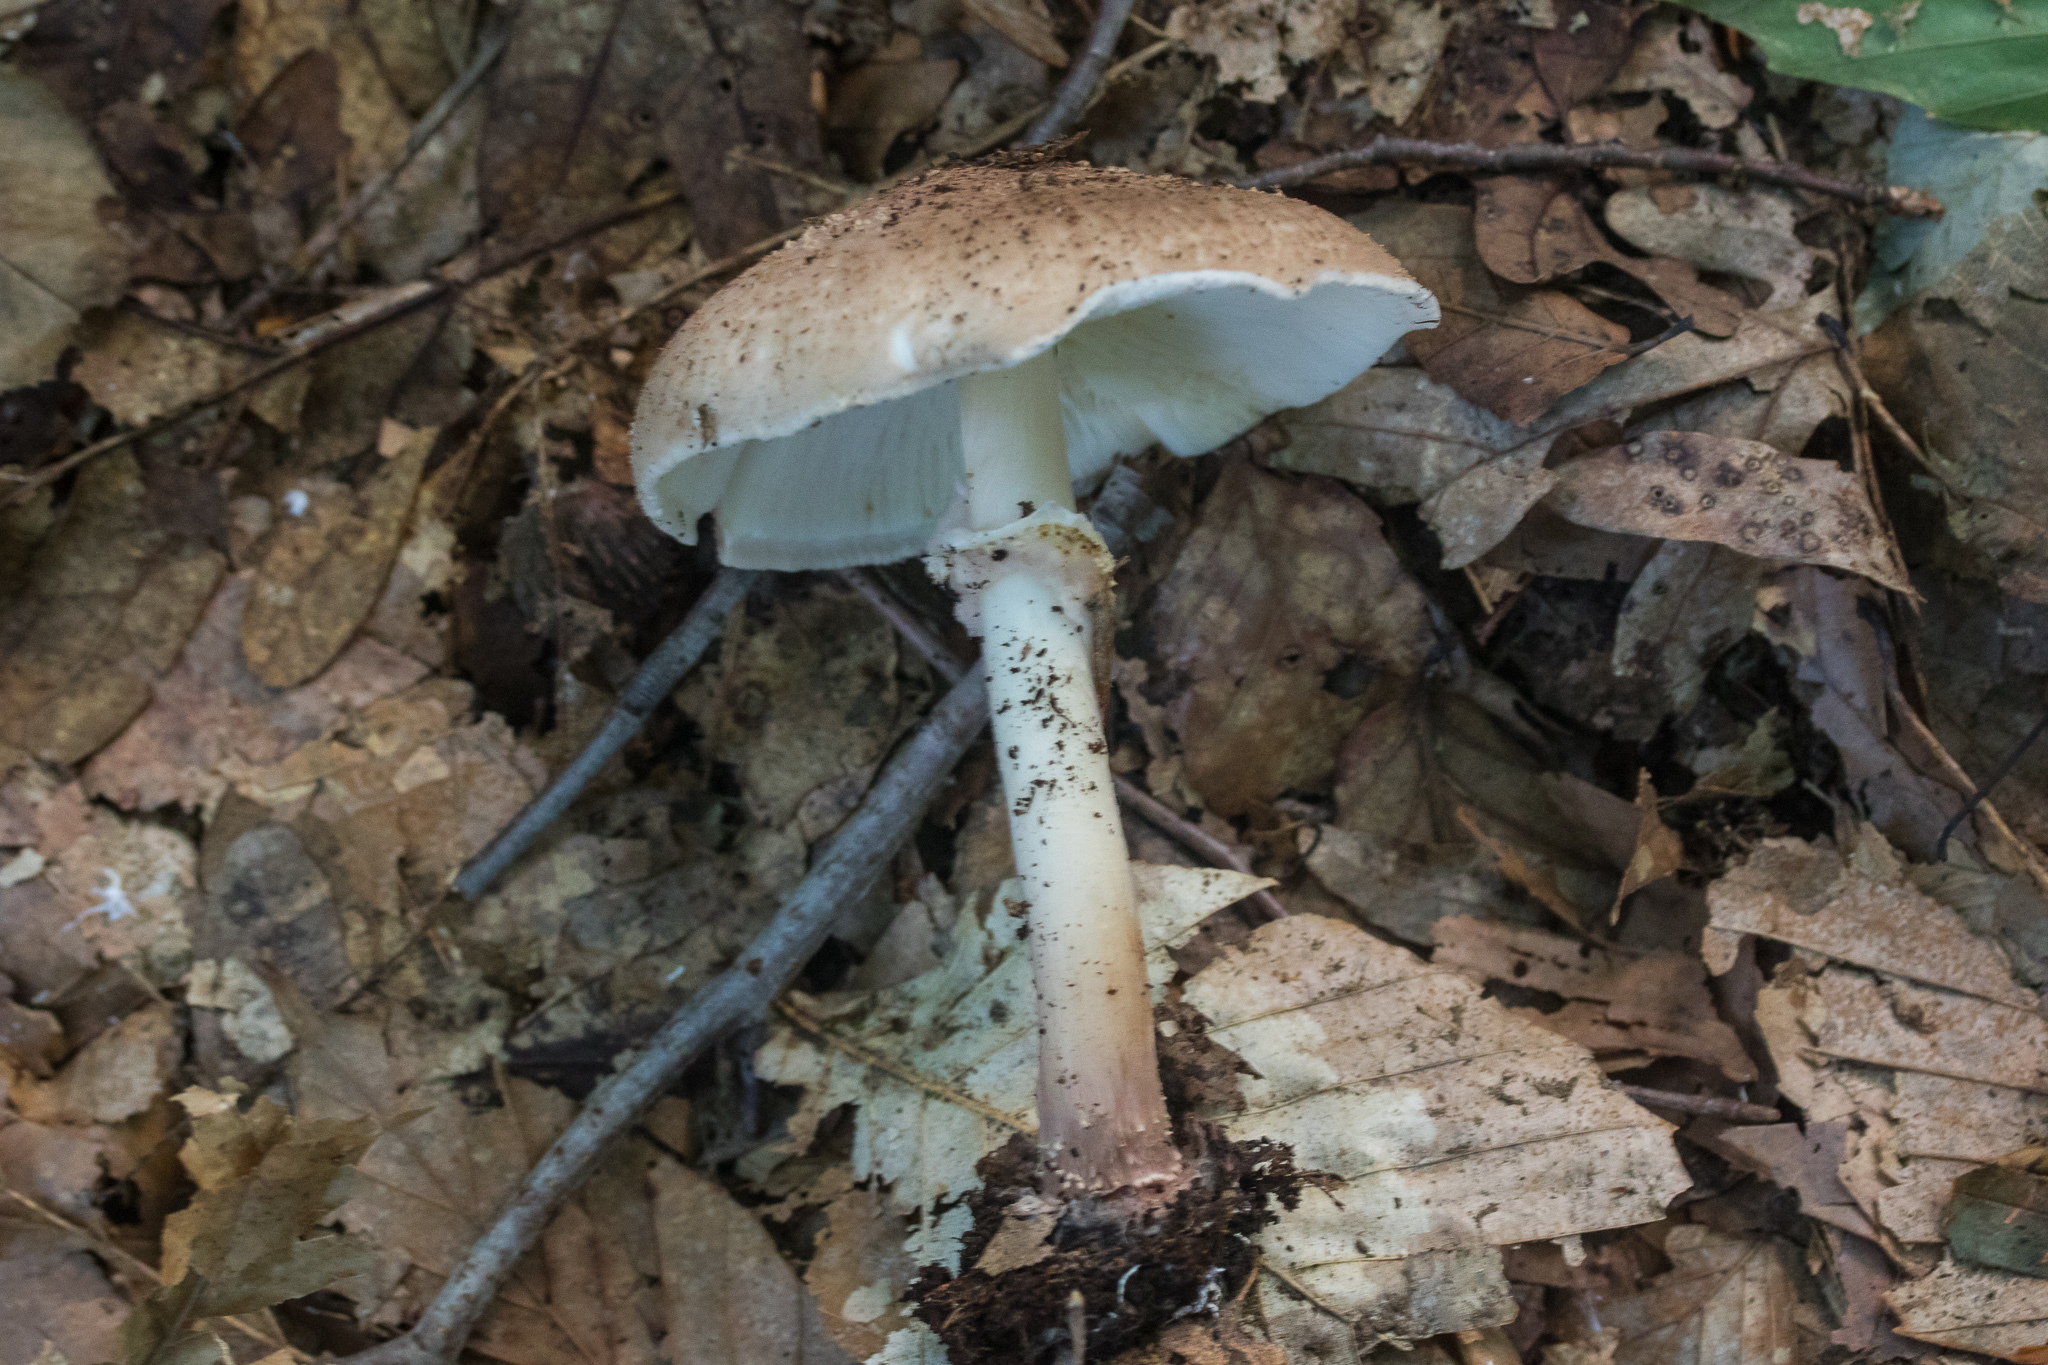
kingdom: Fungi
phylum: Basidiomycota
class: Agaricomycetes
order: Agaricales
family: Agaricaceae
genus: Echinoderma
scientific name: Echinoderma asperum
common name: Freckled dapperling
